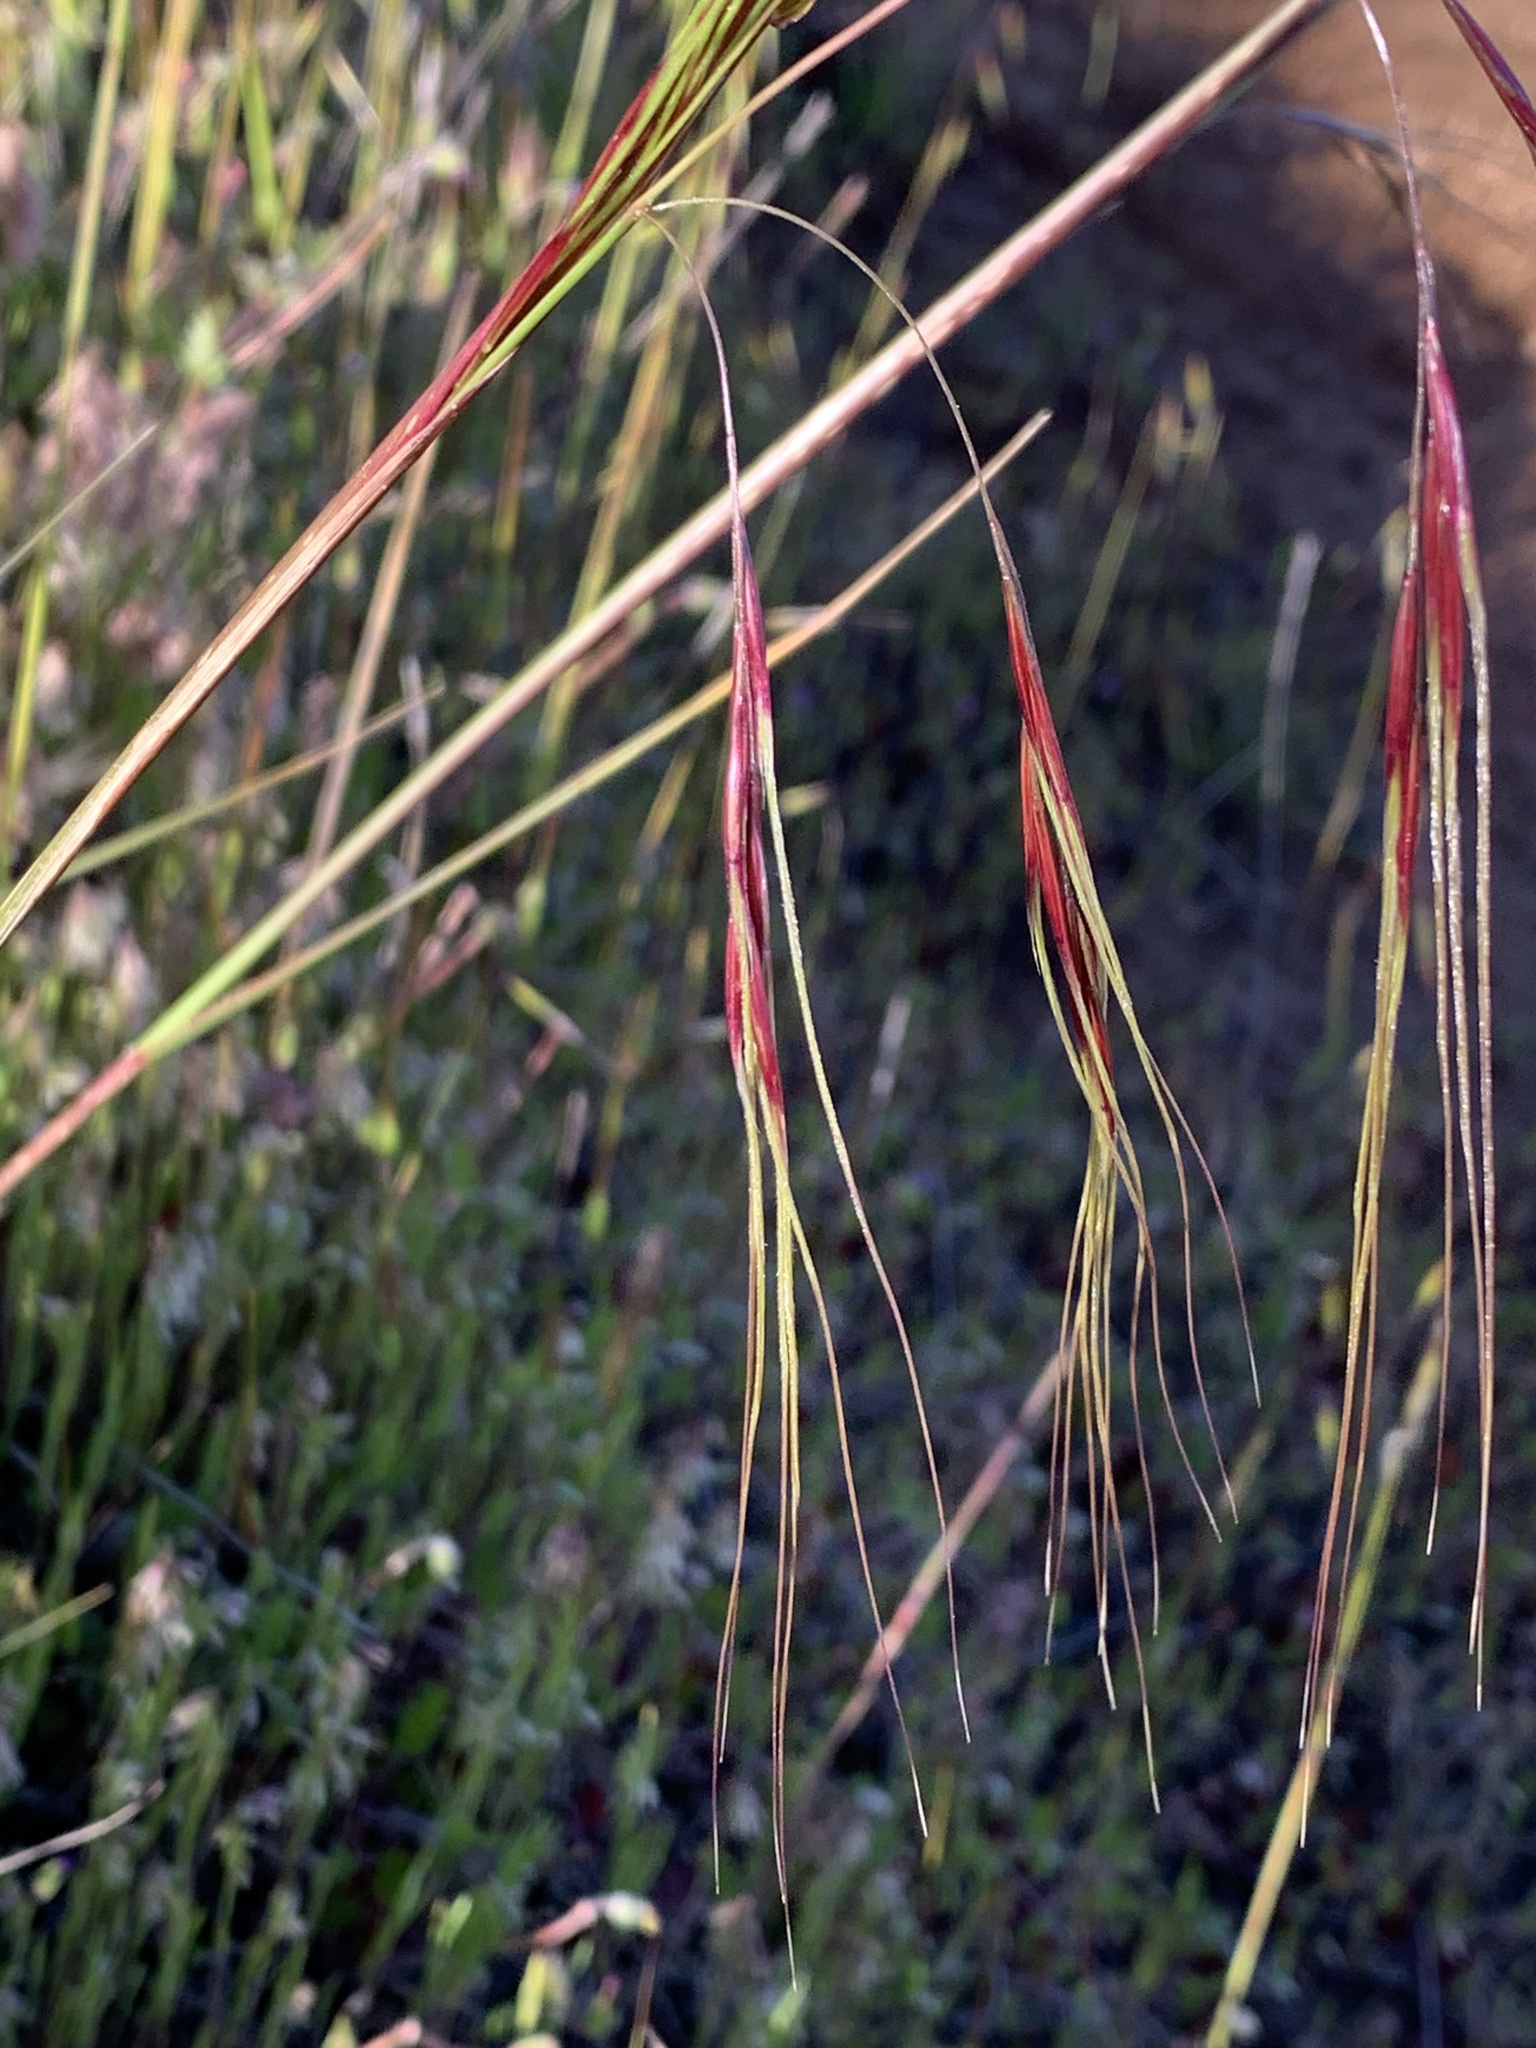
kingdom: Plantae
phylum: Tracheophyta
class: Liliopsida
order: Poales
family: Poaceae
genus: Nassella
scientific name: Nassella pulchra
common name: Purple needlegrass
